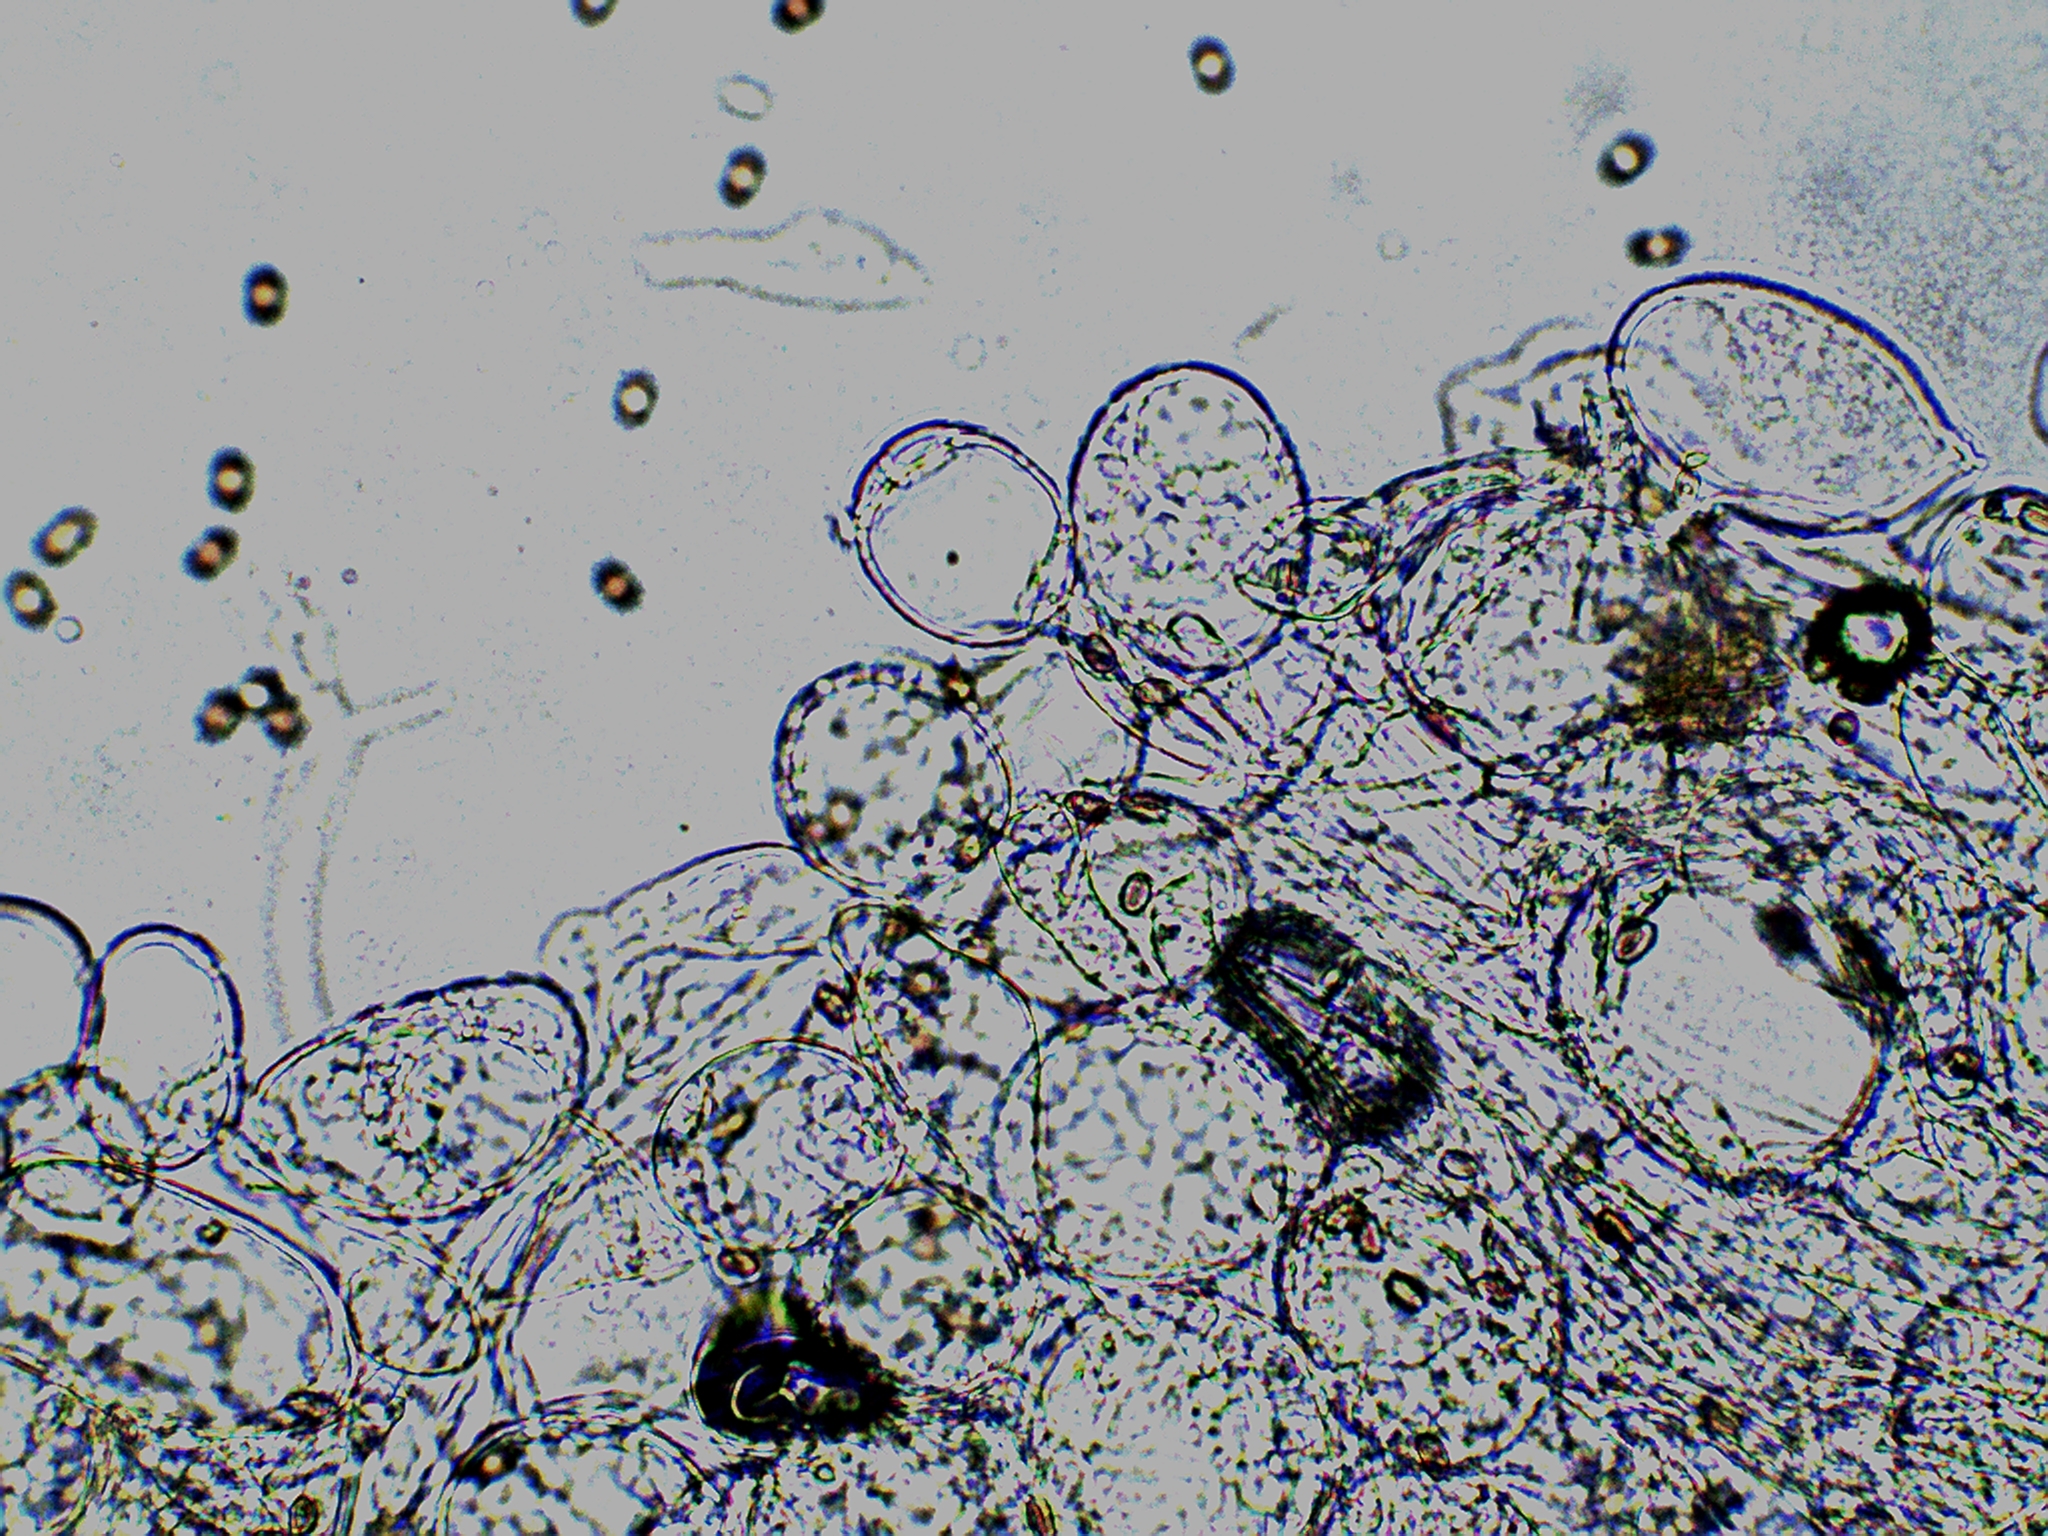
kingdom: Fungi
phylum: Basidiomycota
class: Agaricomycetes
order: Agaricales
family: Psathyrellaceae
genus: Candolleomyces
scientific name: Candolleomyces candolleanus
